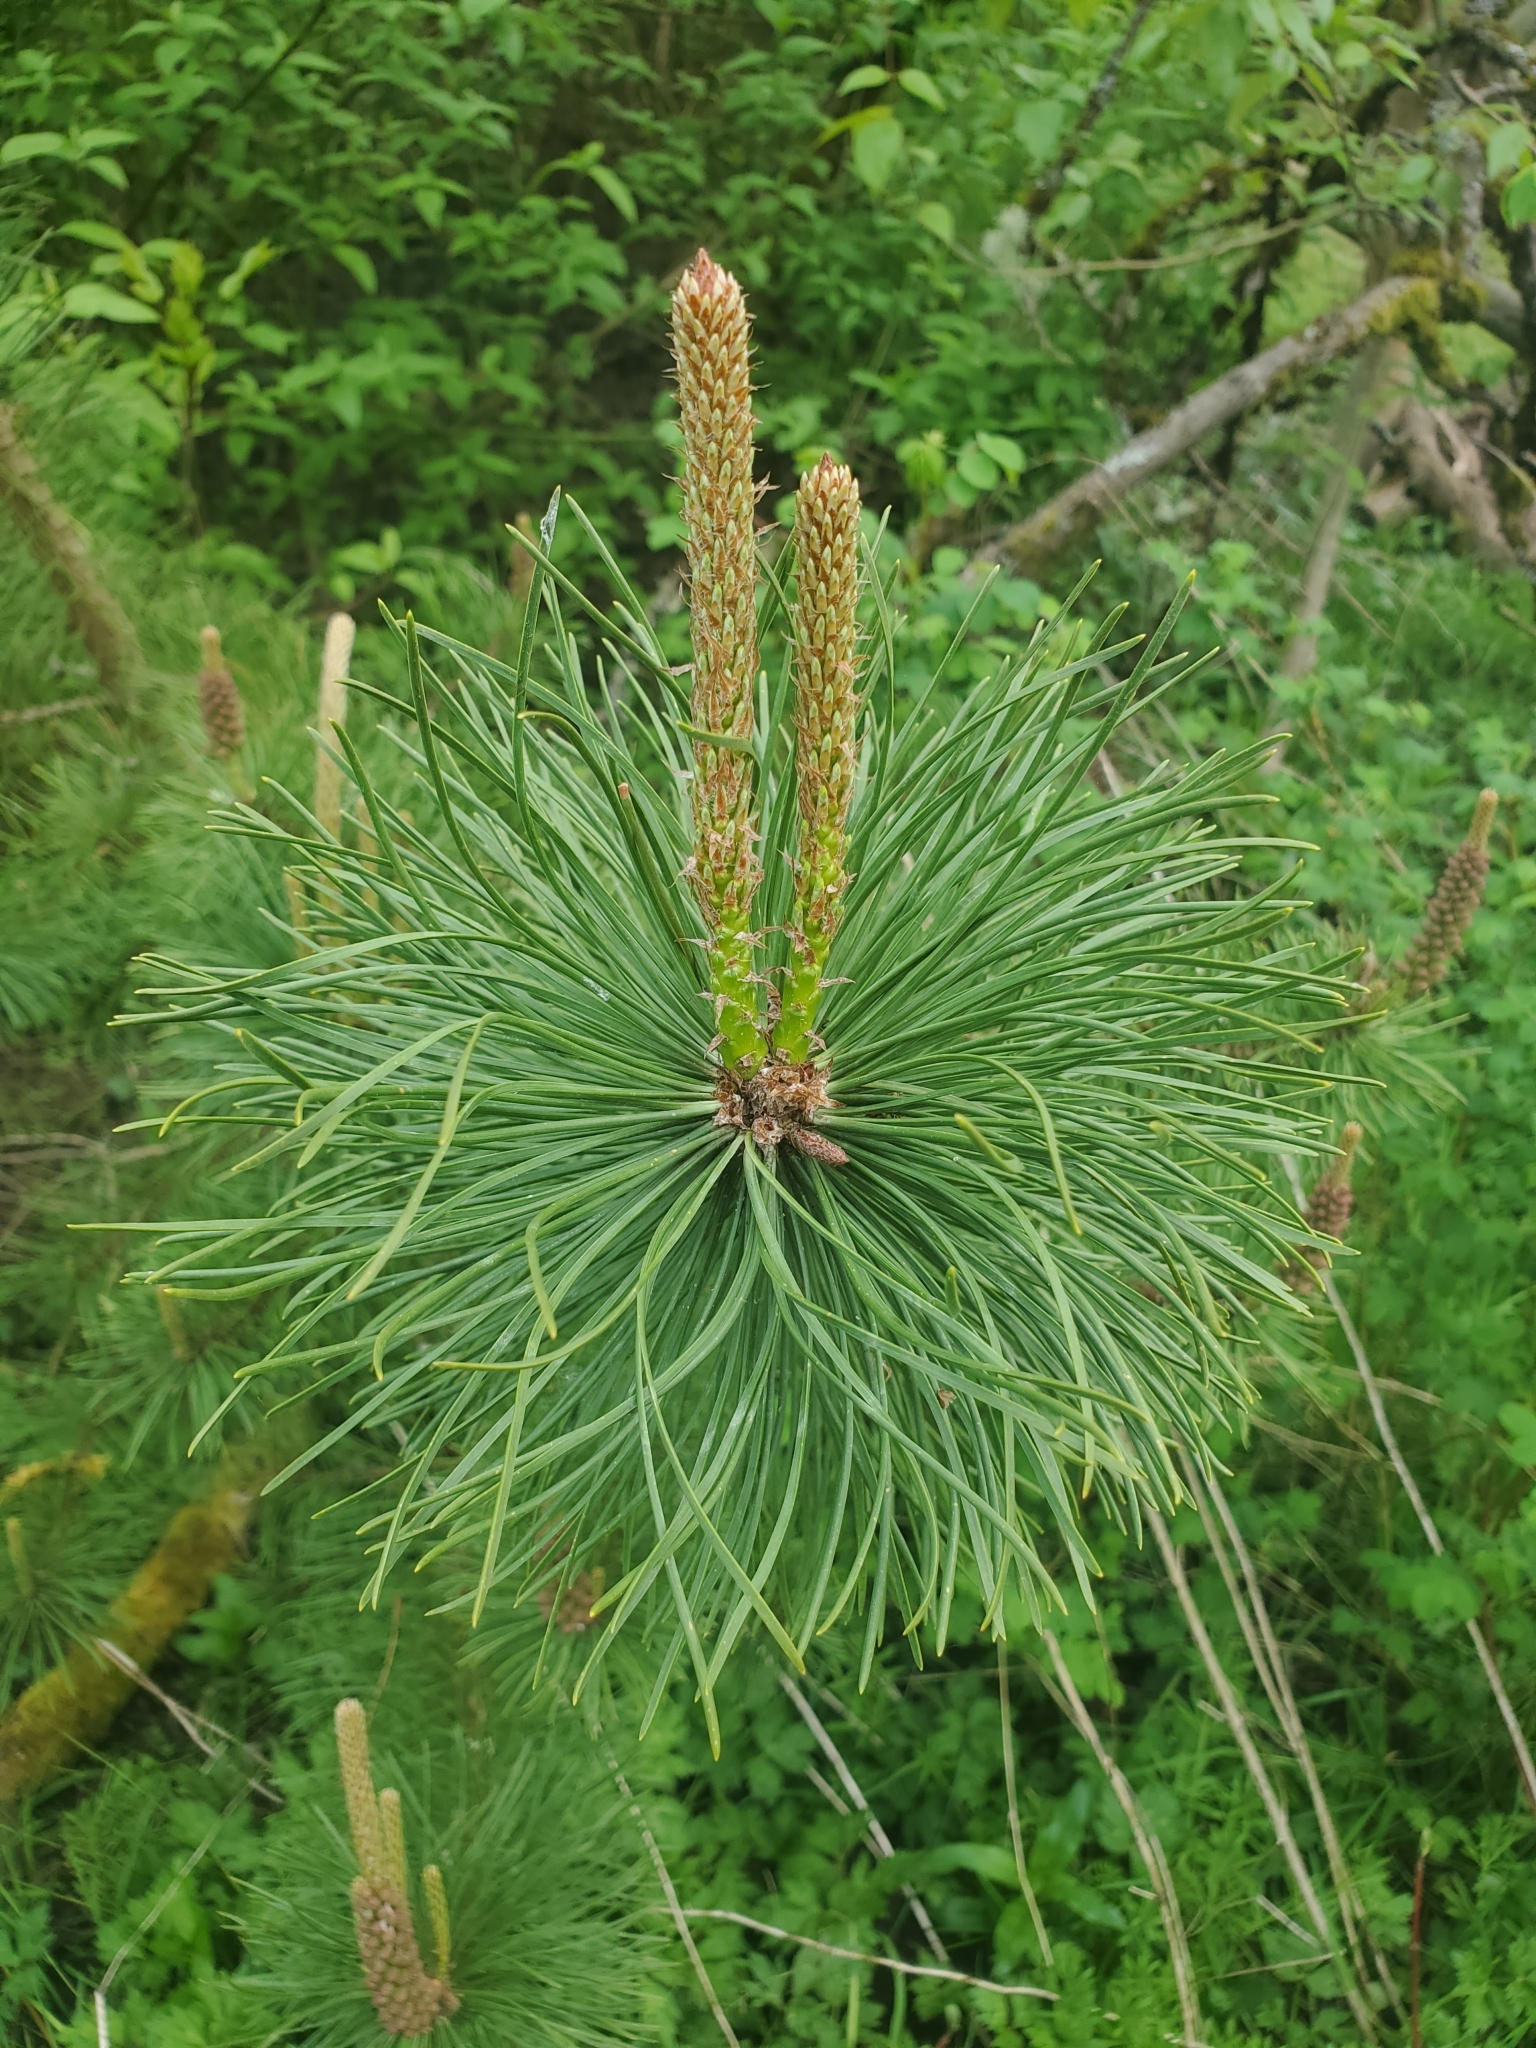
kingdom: Plantae
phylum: Tracheophyta
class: Pinopsida
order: Pinales
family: Pinaceae
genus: Pinus
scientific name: Pinus contorta
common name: Lodgepole pine
